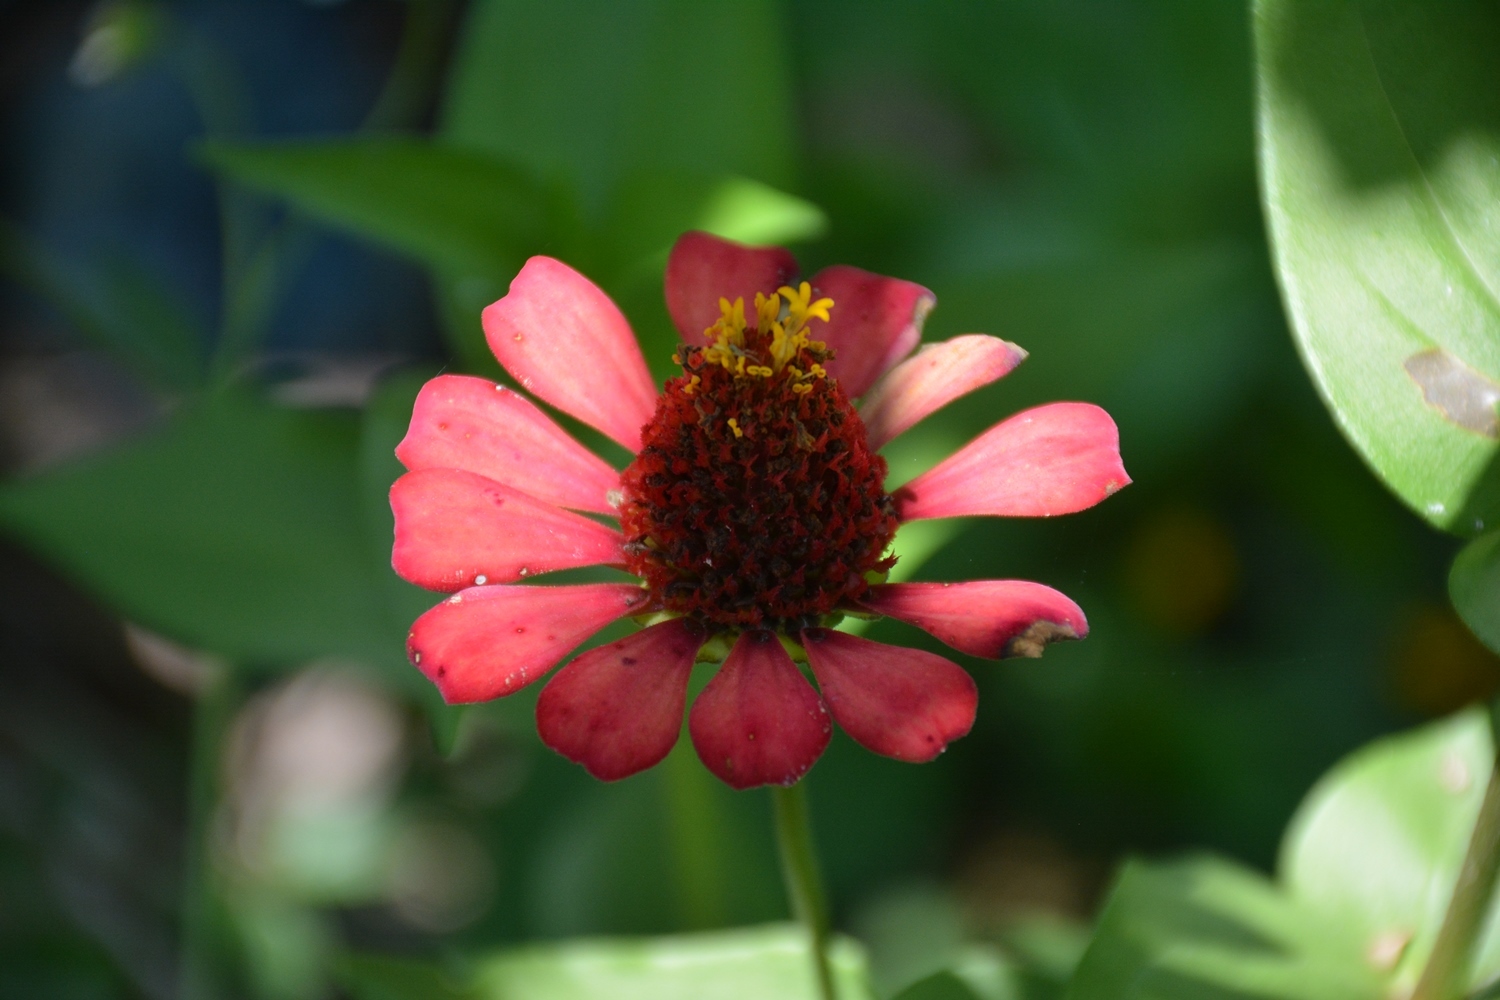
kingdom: Plantae
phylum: Tracheophyta
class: Magnoliopsida
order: Asterales
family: Asteraceae
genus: Zinnia
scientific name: Zinnia elegans
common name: Youth-and-age
